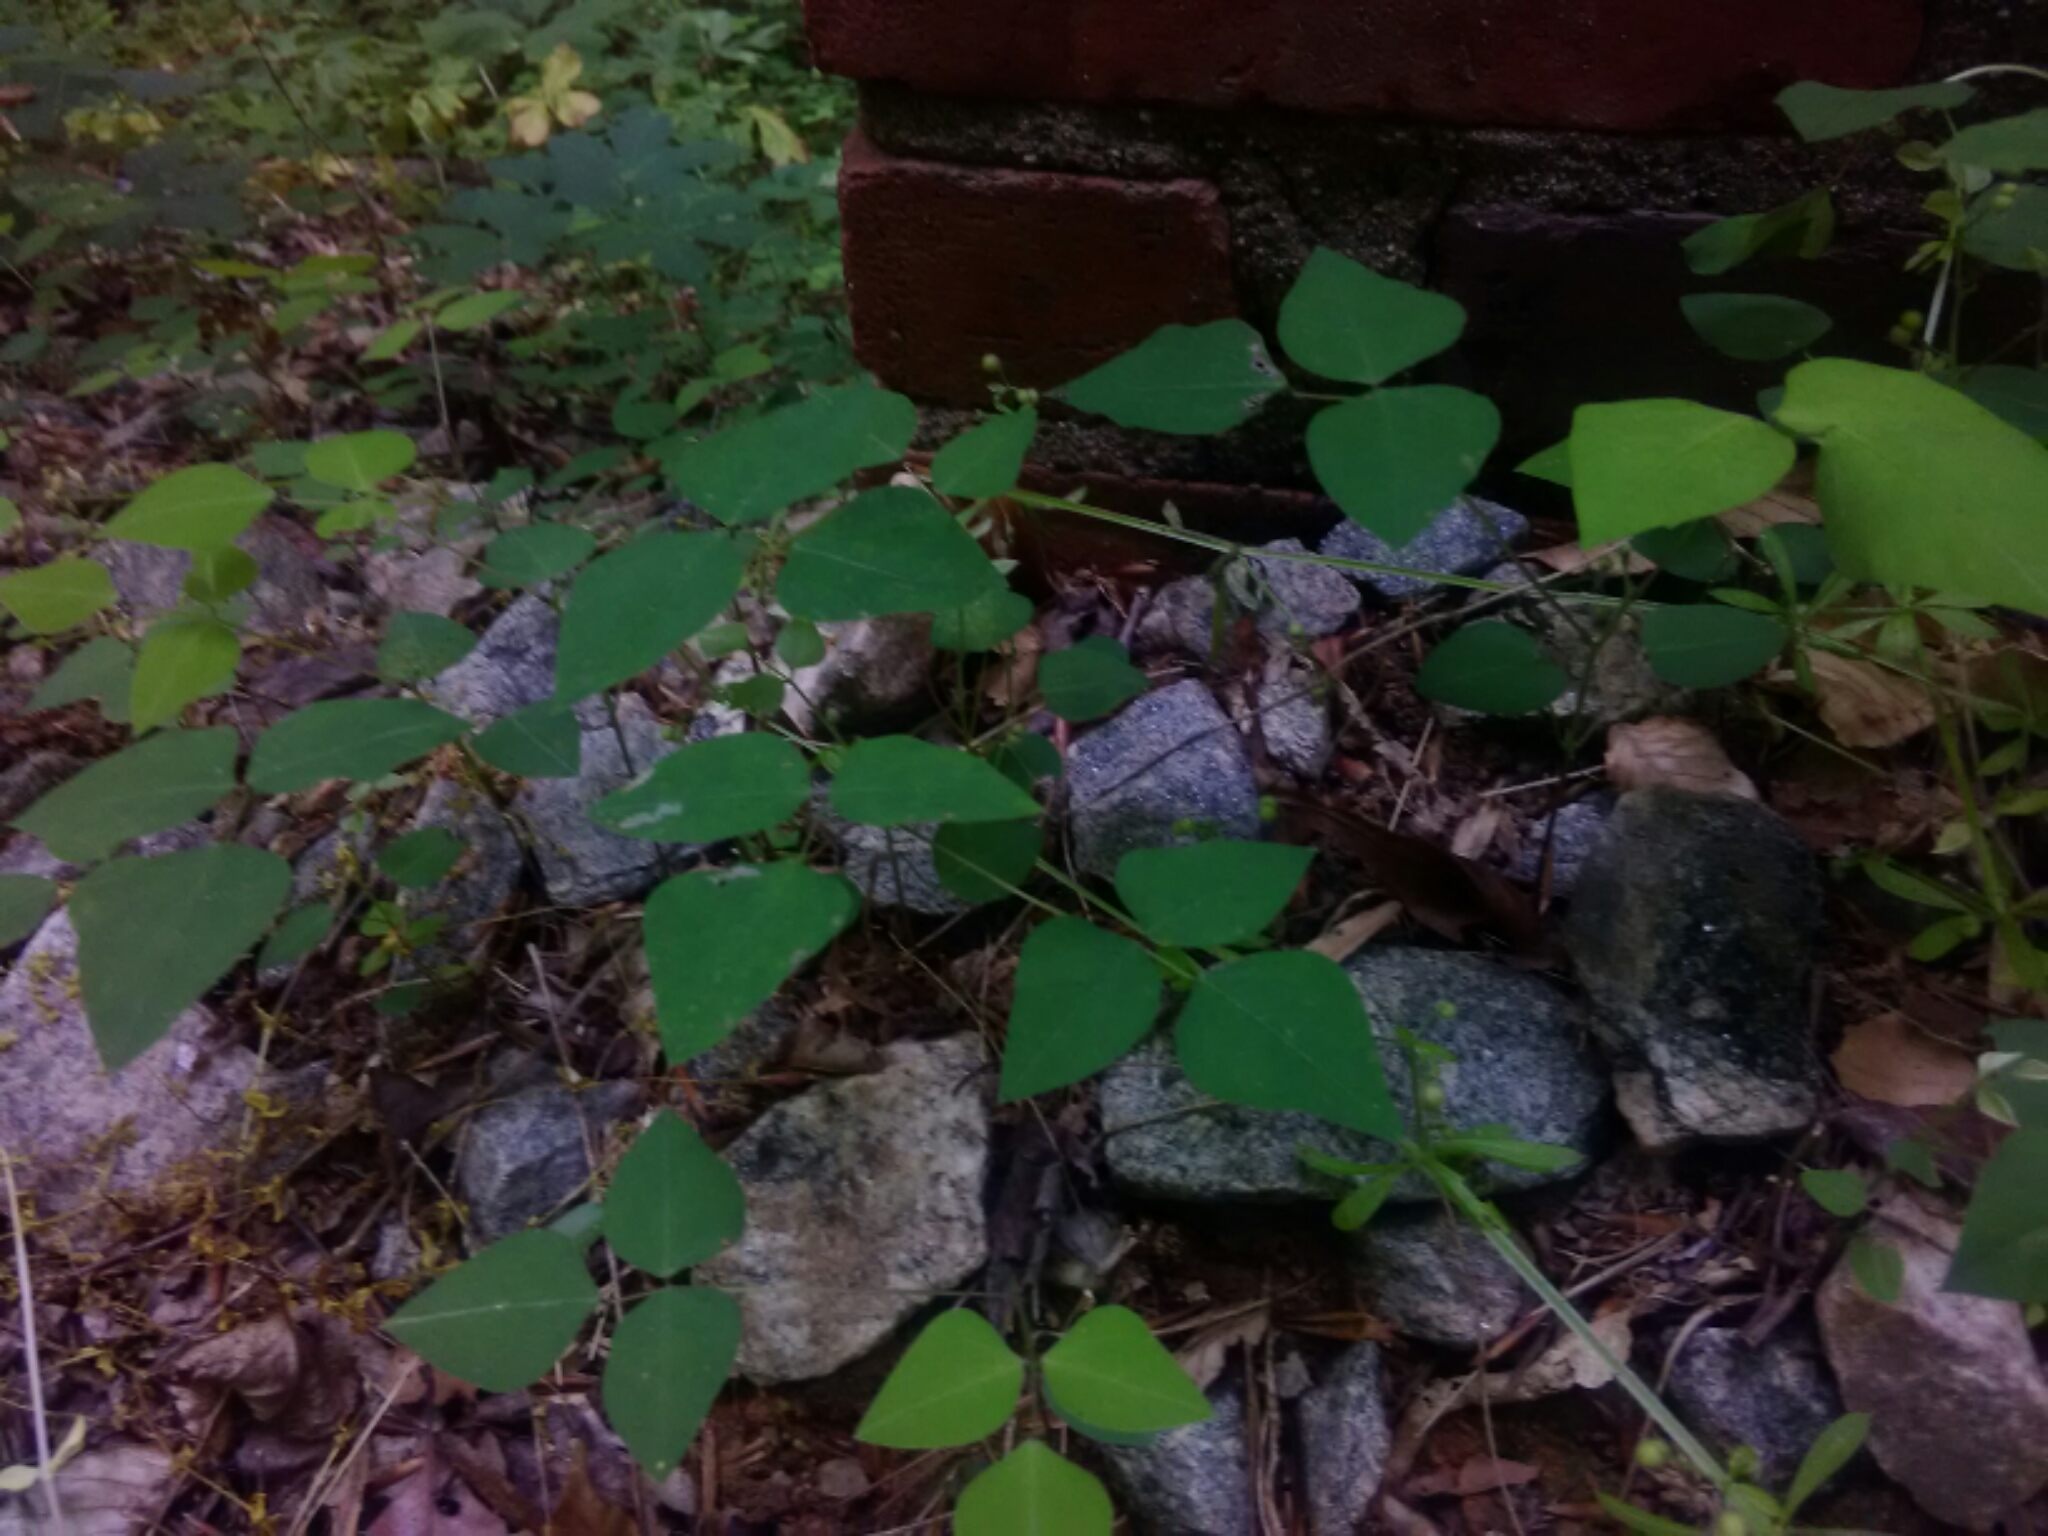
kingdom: Plantae
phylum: Tracheophyta
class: Magnoliopsida
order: Fabales
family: Fabaceae
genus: Amphicarpaea
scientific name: Amphicarpaea bracteata
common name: American hog peanut
